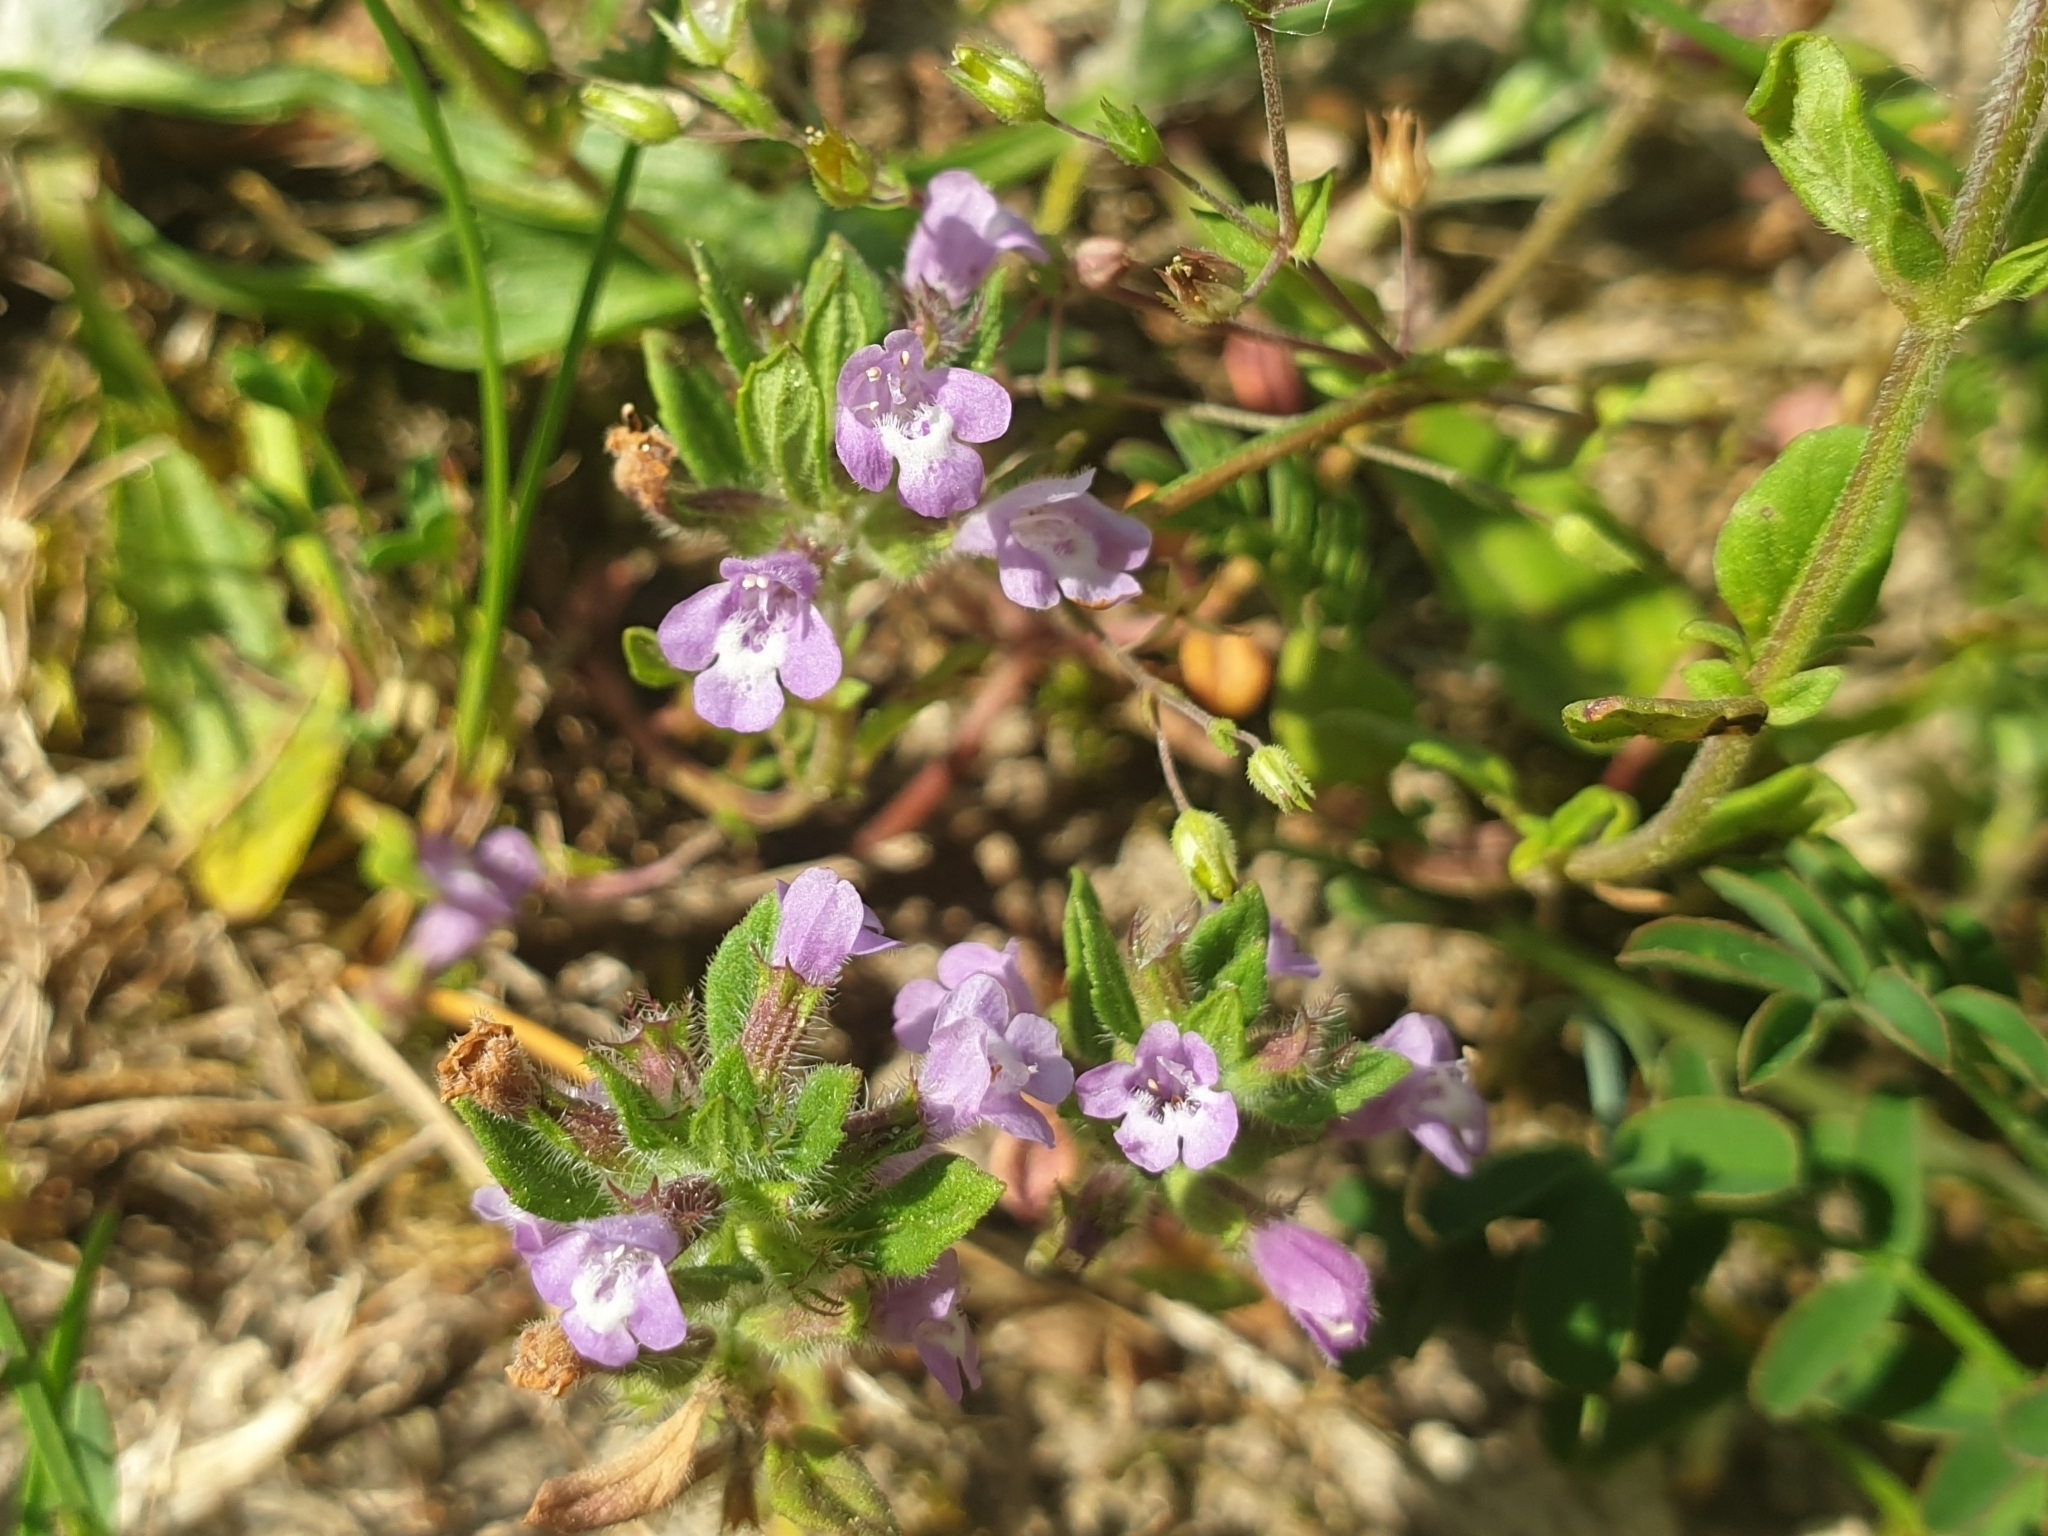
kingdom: Plantae
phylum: Tracheophyta
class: Magnoliopsida
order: Lamiales
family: Lamiaceae
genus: Clinopodium
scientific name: Clinopodium acinos
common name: Basil thyme
